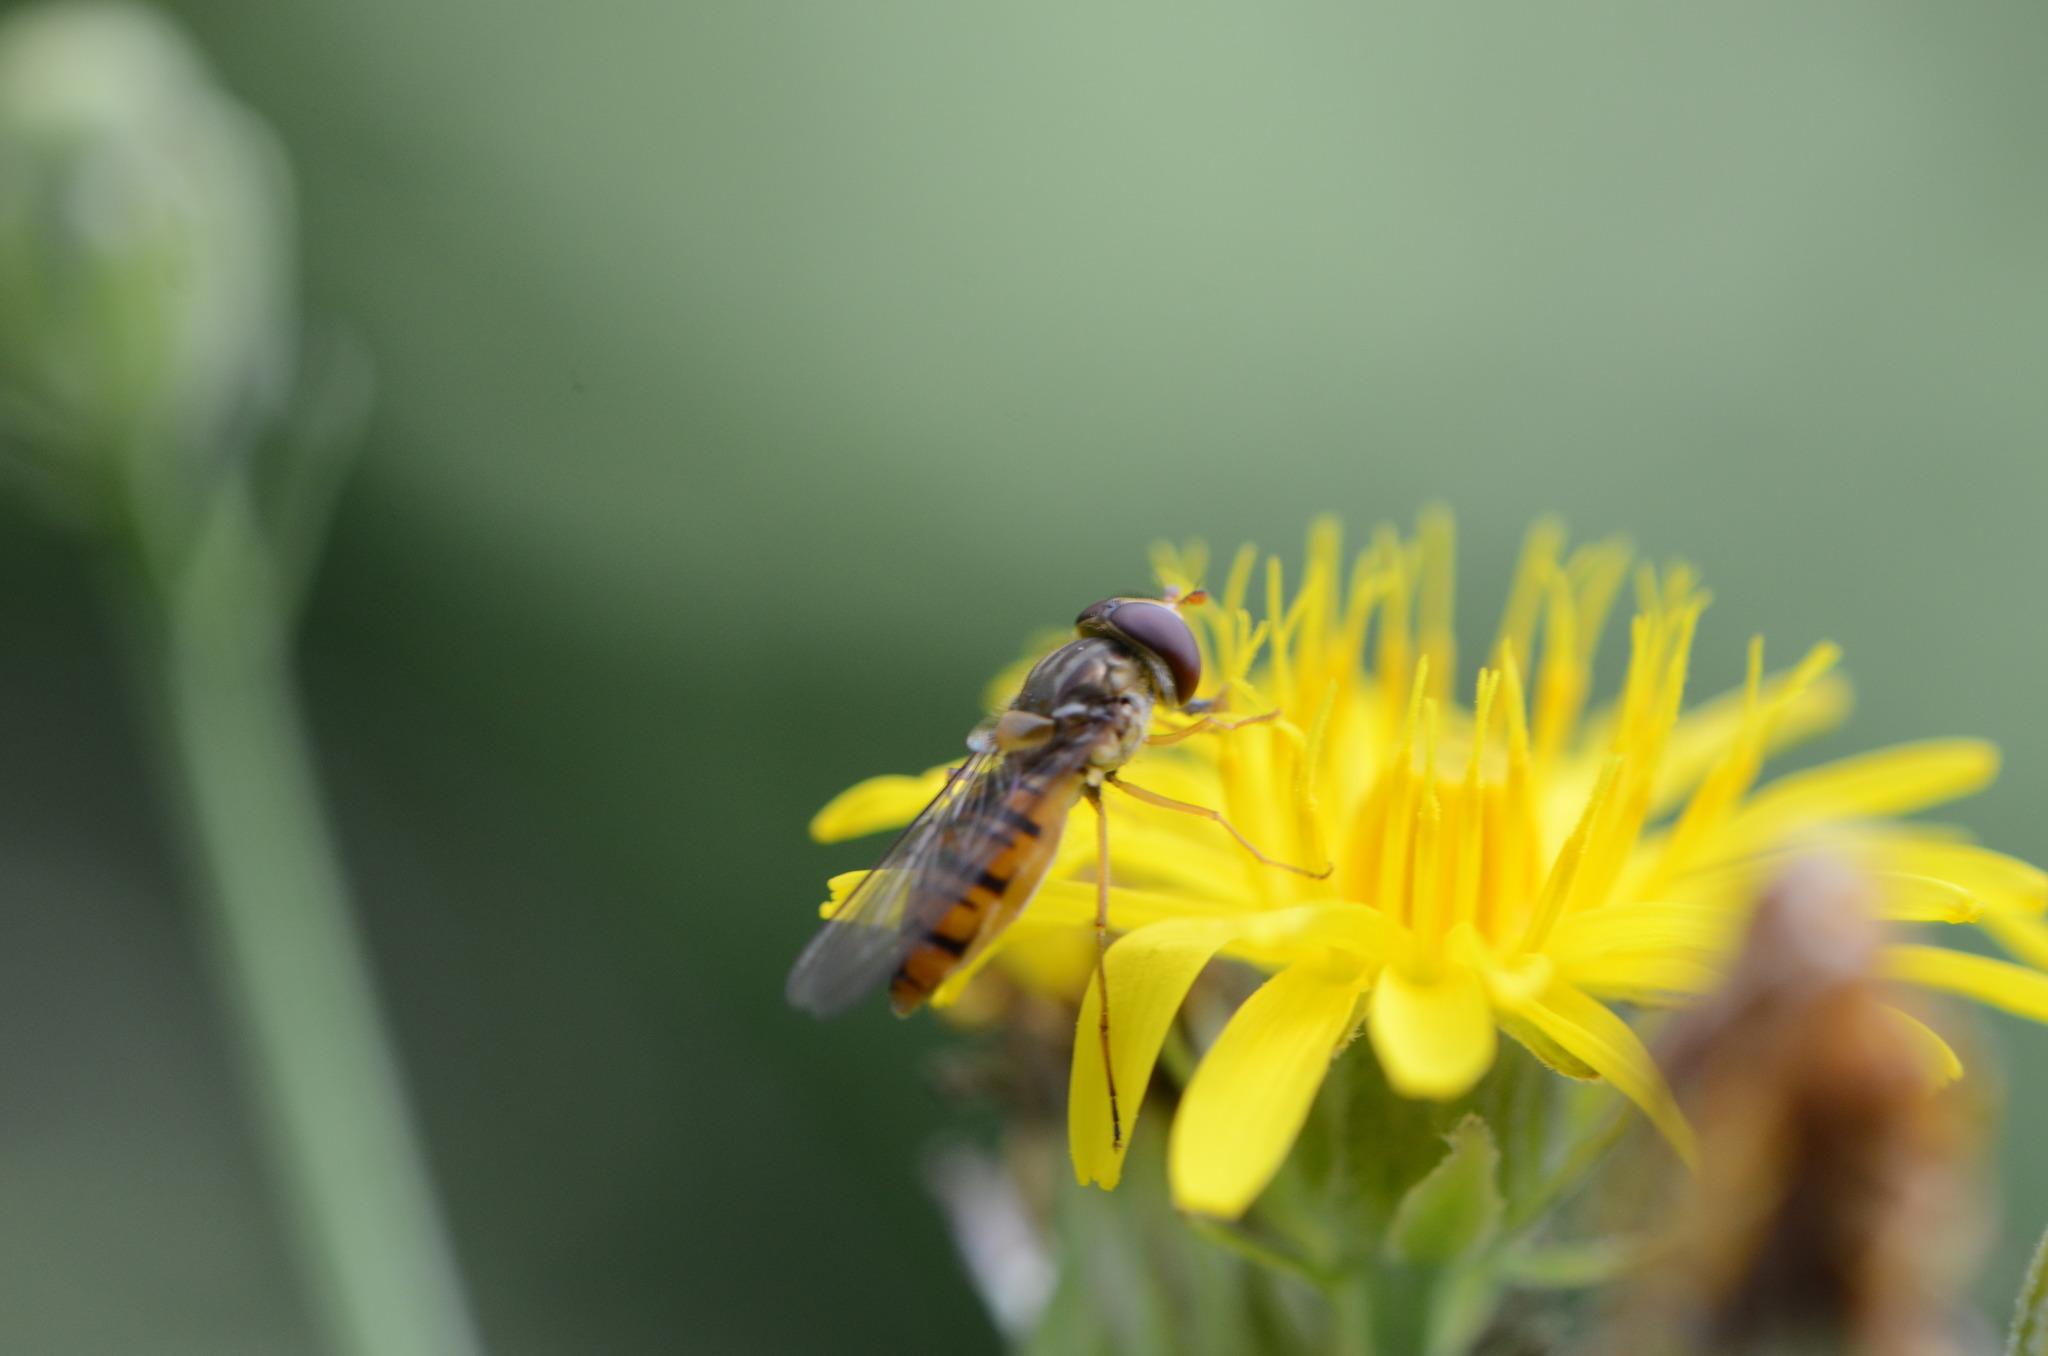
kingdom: Animalia
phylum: Arthropoda
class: Insecta
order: Diptera
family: Syrphidae
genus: Episyrphus
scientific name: Episyrphus balteatus
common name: Marmalade hoverfly
